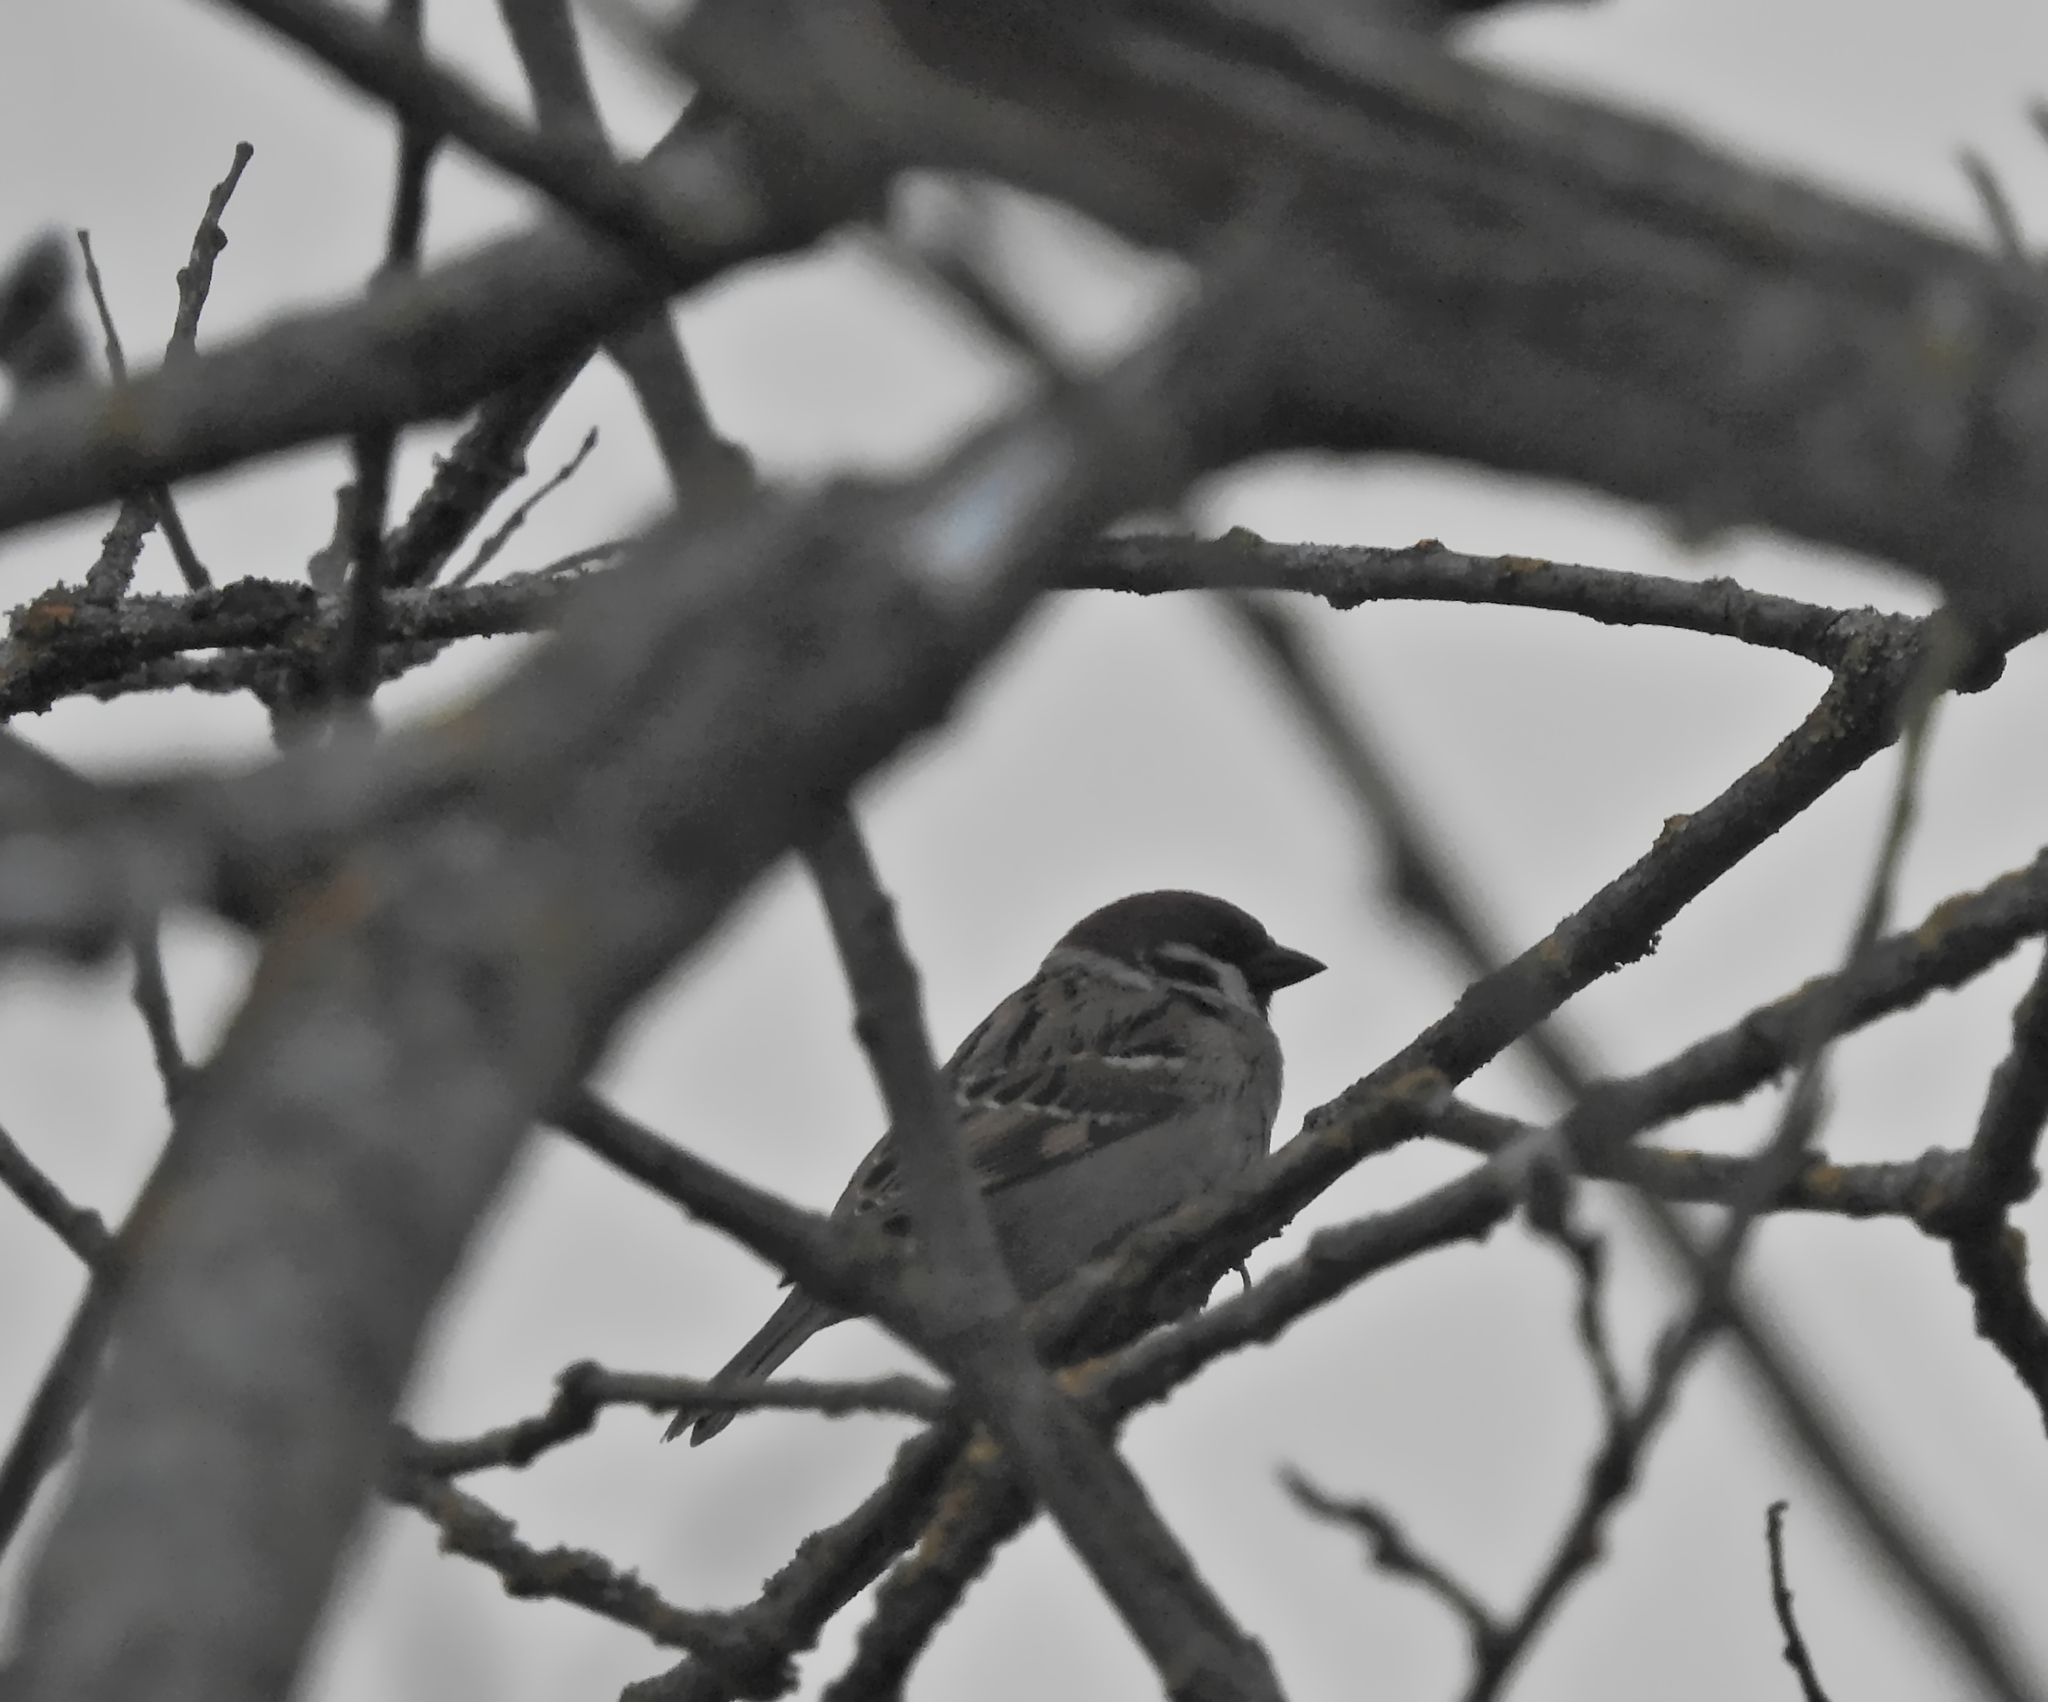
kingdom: Animalia
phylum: Chordata
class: Aves
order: Passeriformes
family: Passeridae
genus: Passer
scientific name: Passer montanus
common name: Eurasian tree sparrow
